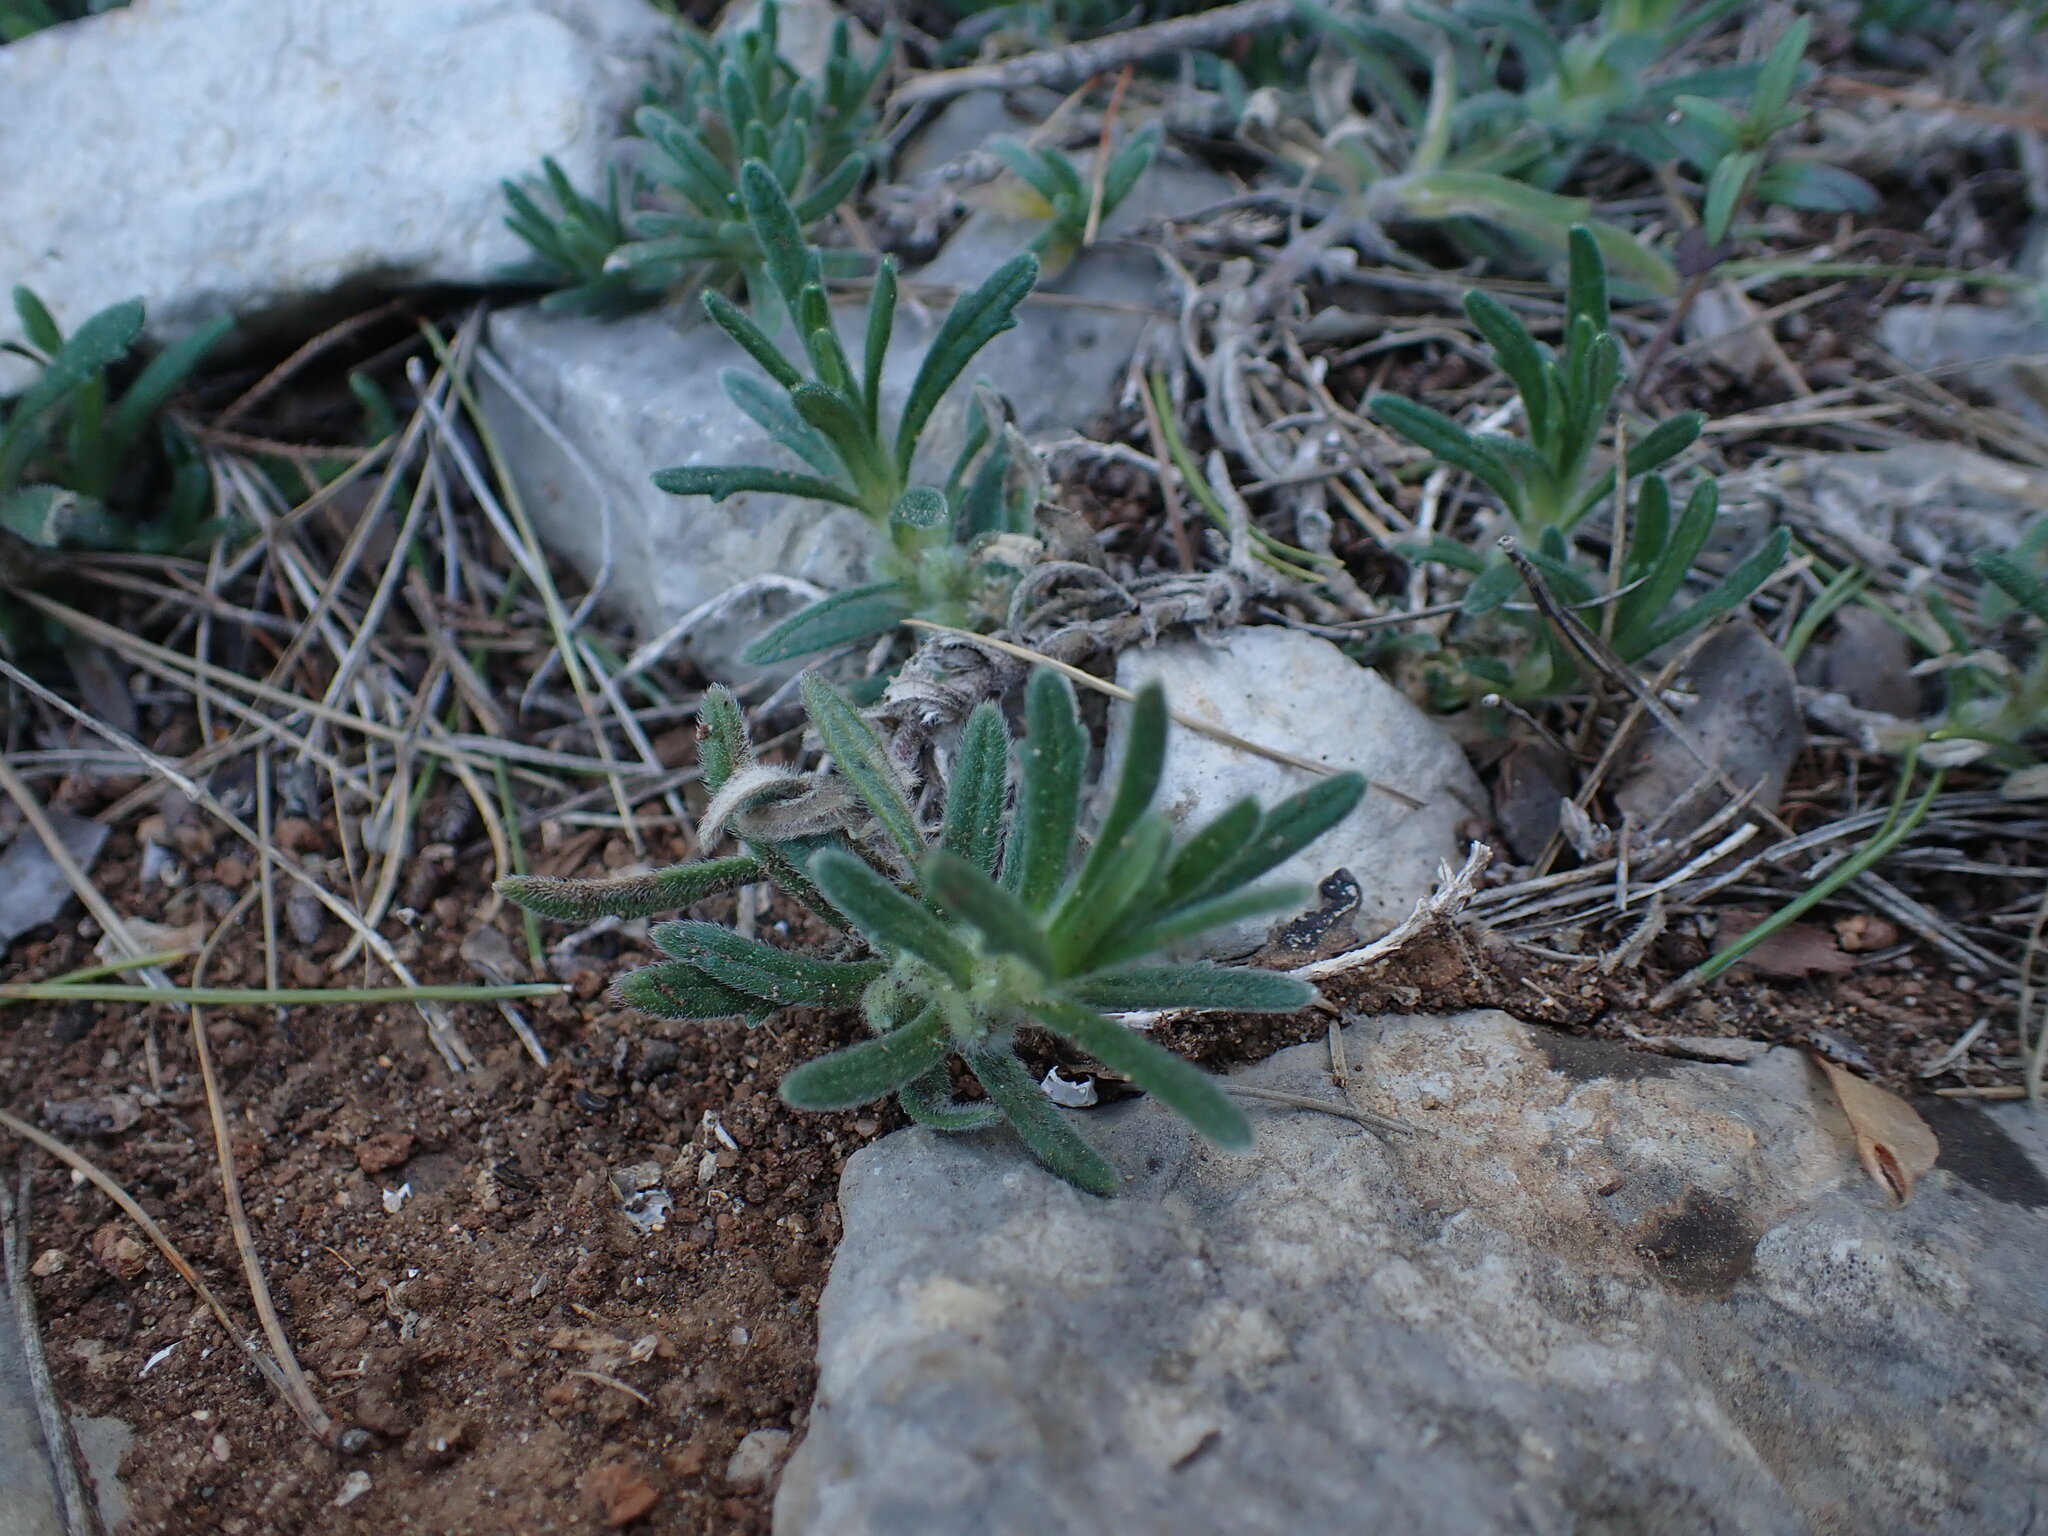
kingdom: Plantae
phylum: Tracheophyta
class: Magnoliopsida
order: Lamiales
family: Lamiaceae
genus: Ajuga
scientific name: Ajuga iva
